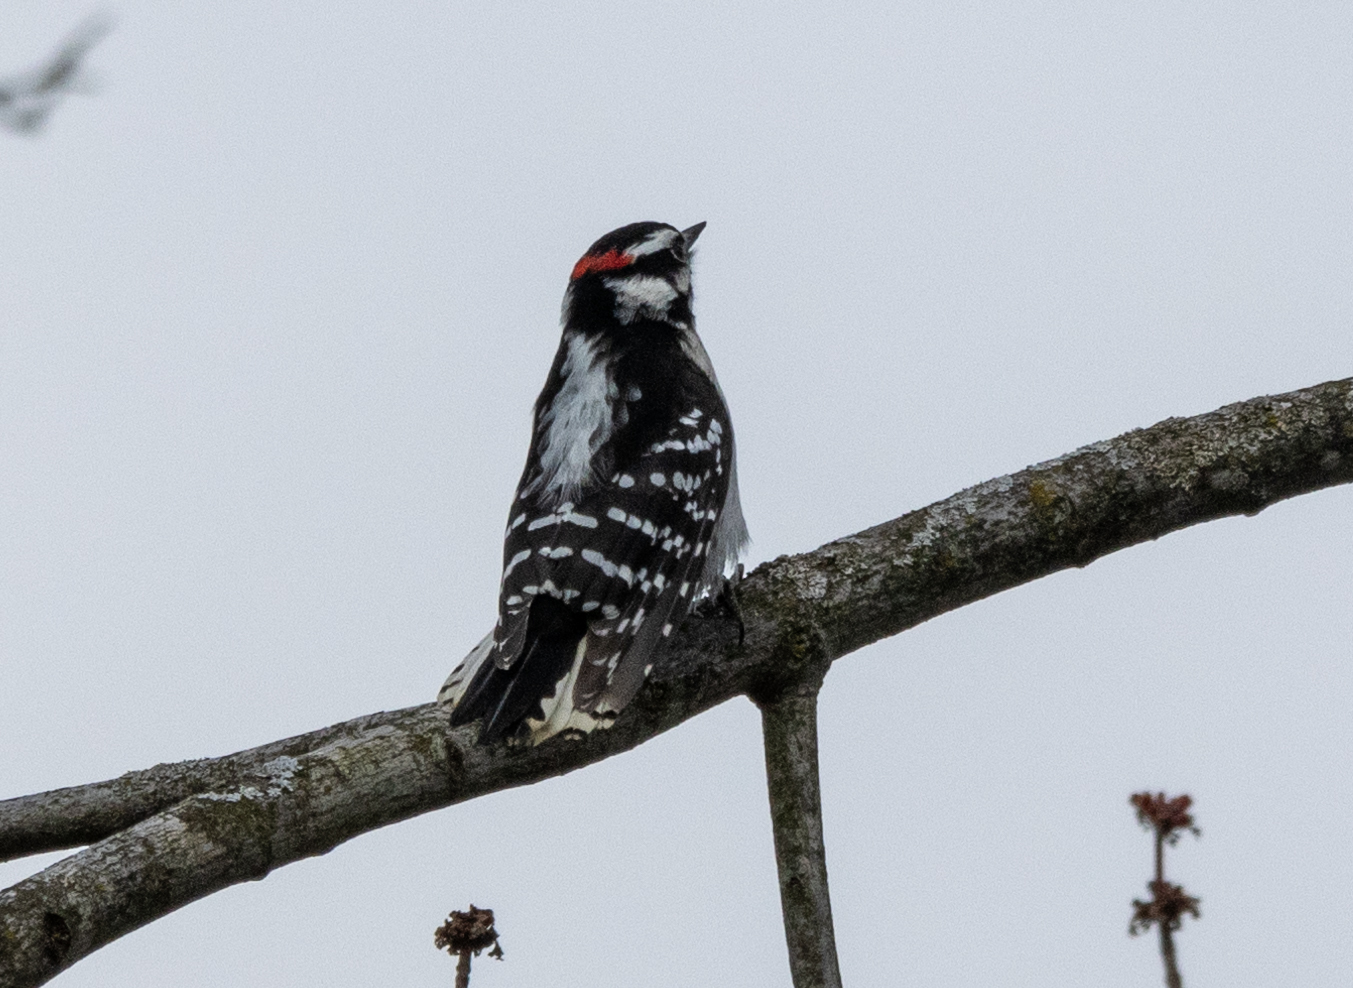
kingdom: Animalia
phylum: Chordata
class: Aves
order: Piciformes
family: Picidae
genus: Dryobates
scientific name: Dryobates pubescens
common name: Downy woodpecker
